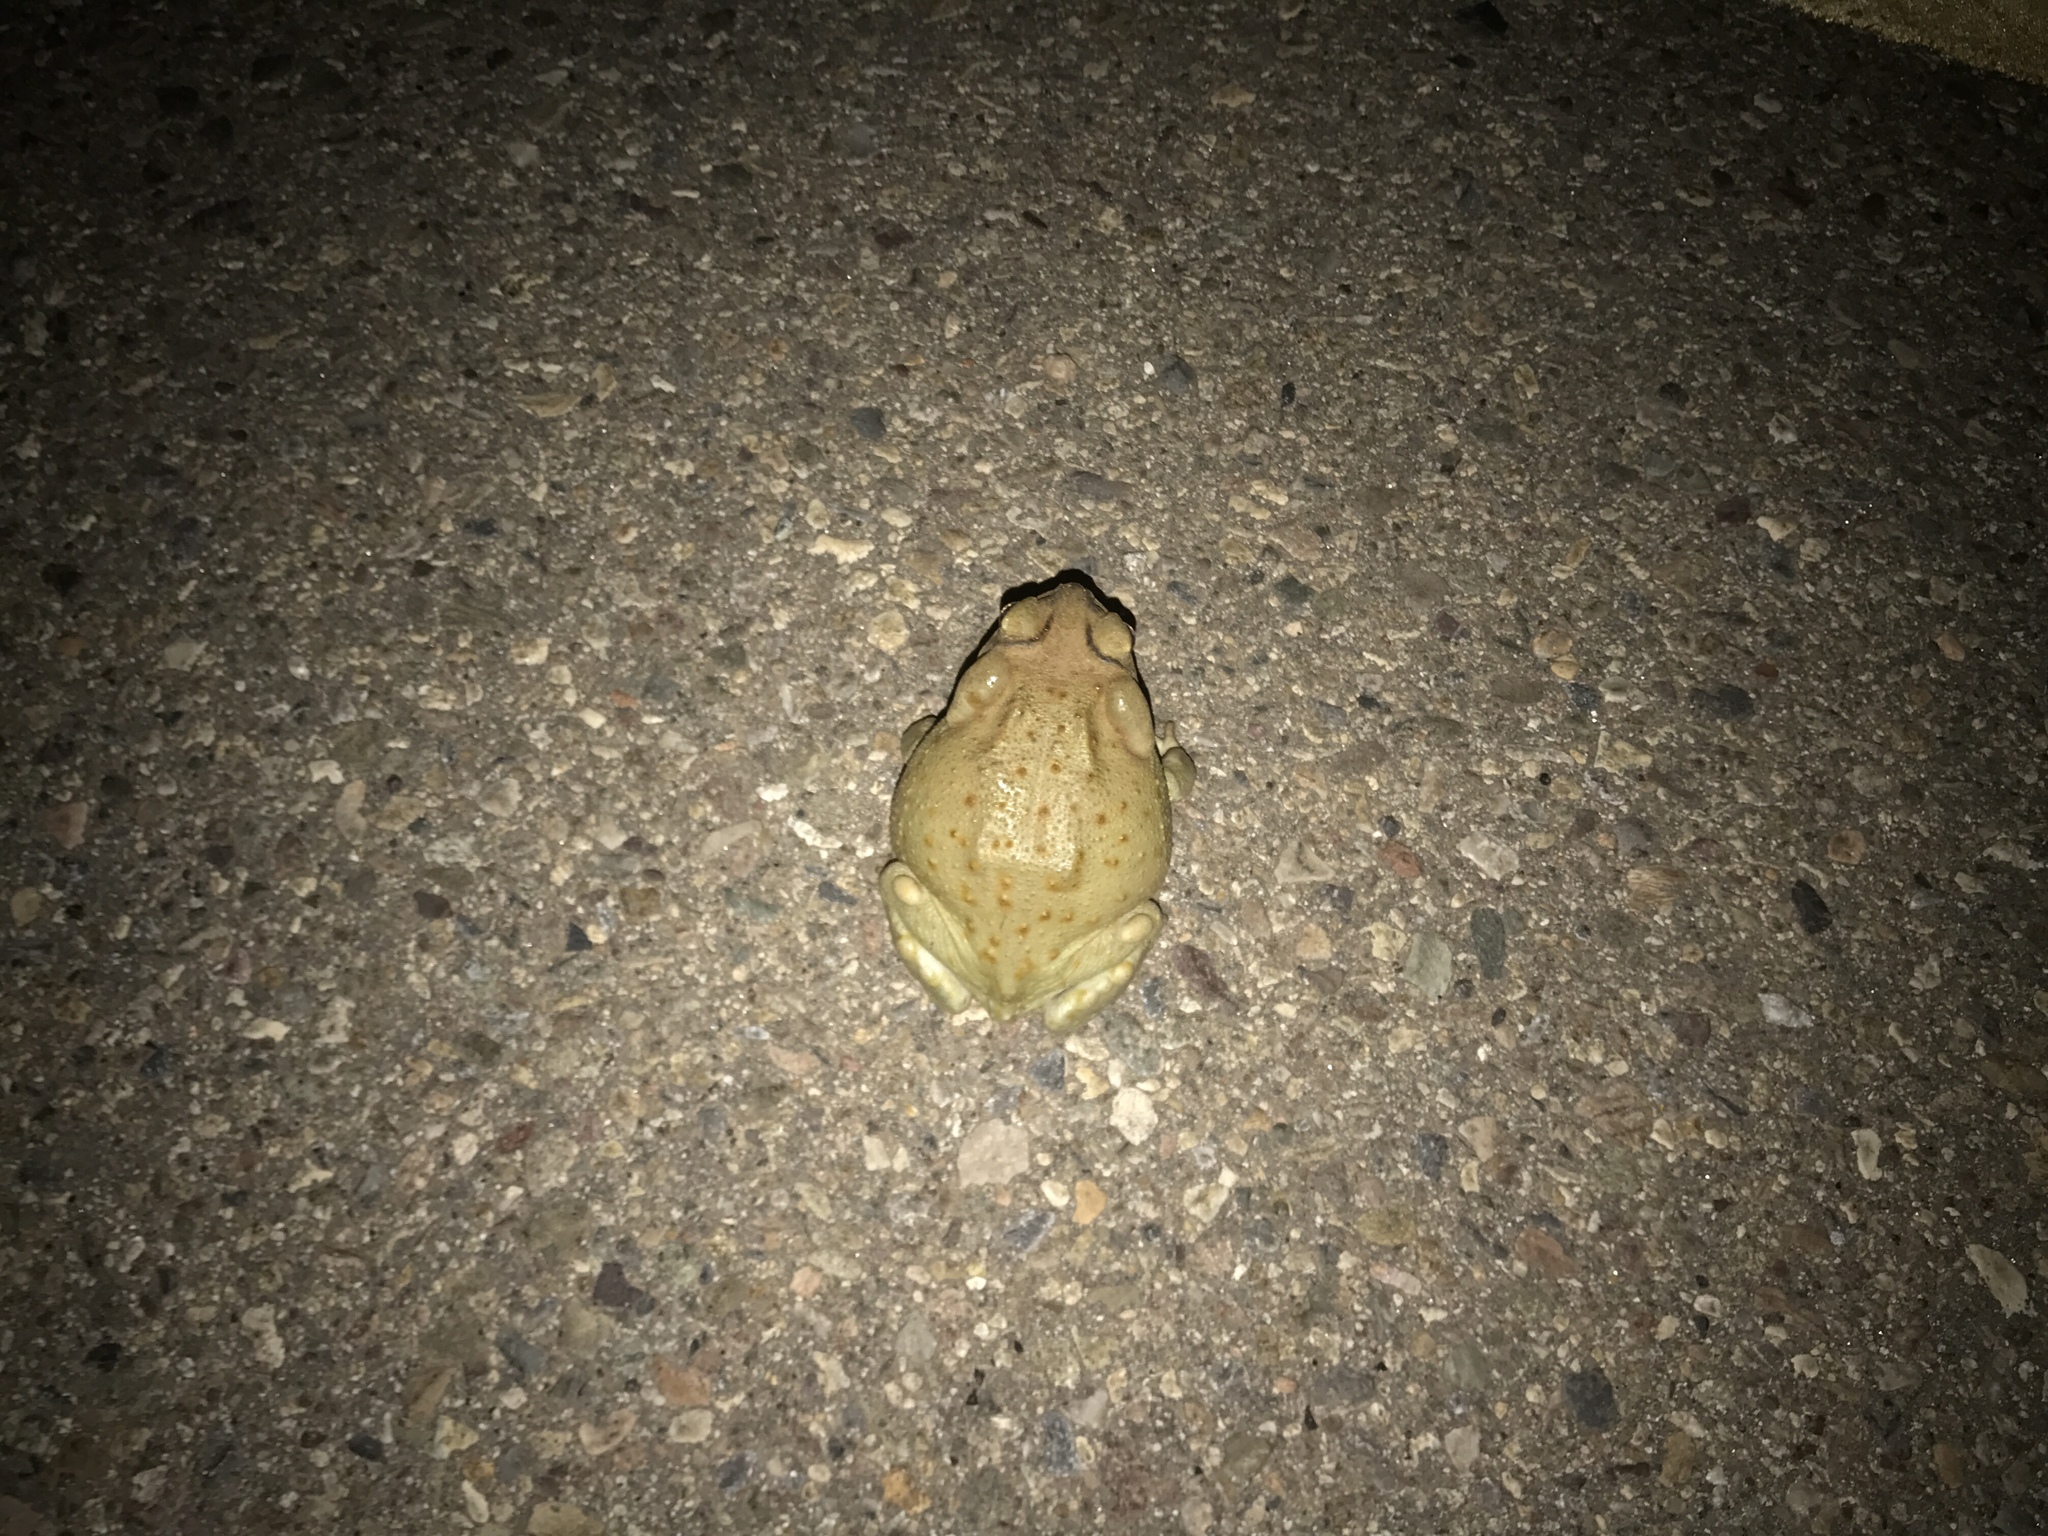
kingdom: Animalia
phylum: Chordata
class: Amphibia
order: Anura
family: Bufonidae
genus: Incilius
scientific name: Incilius alvarius
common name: Sonoran desert toad
